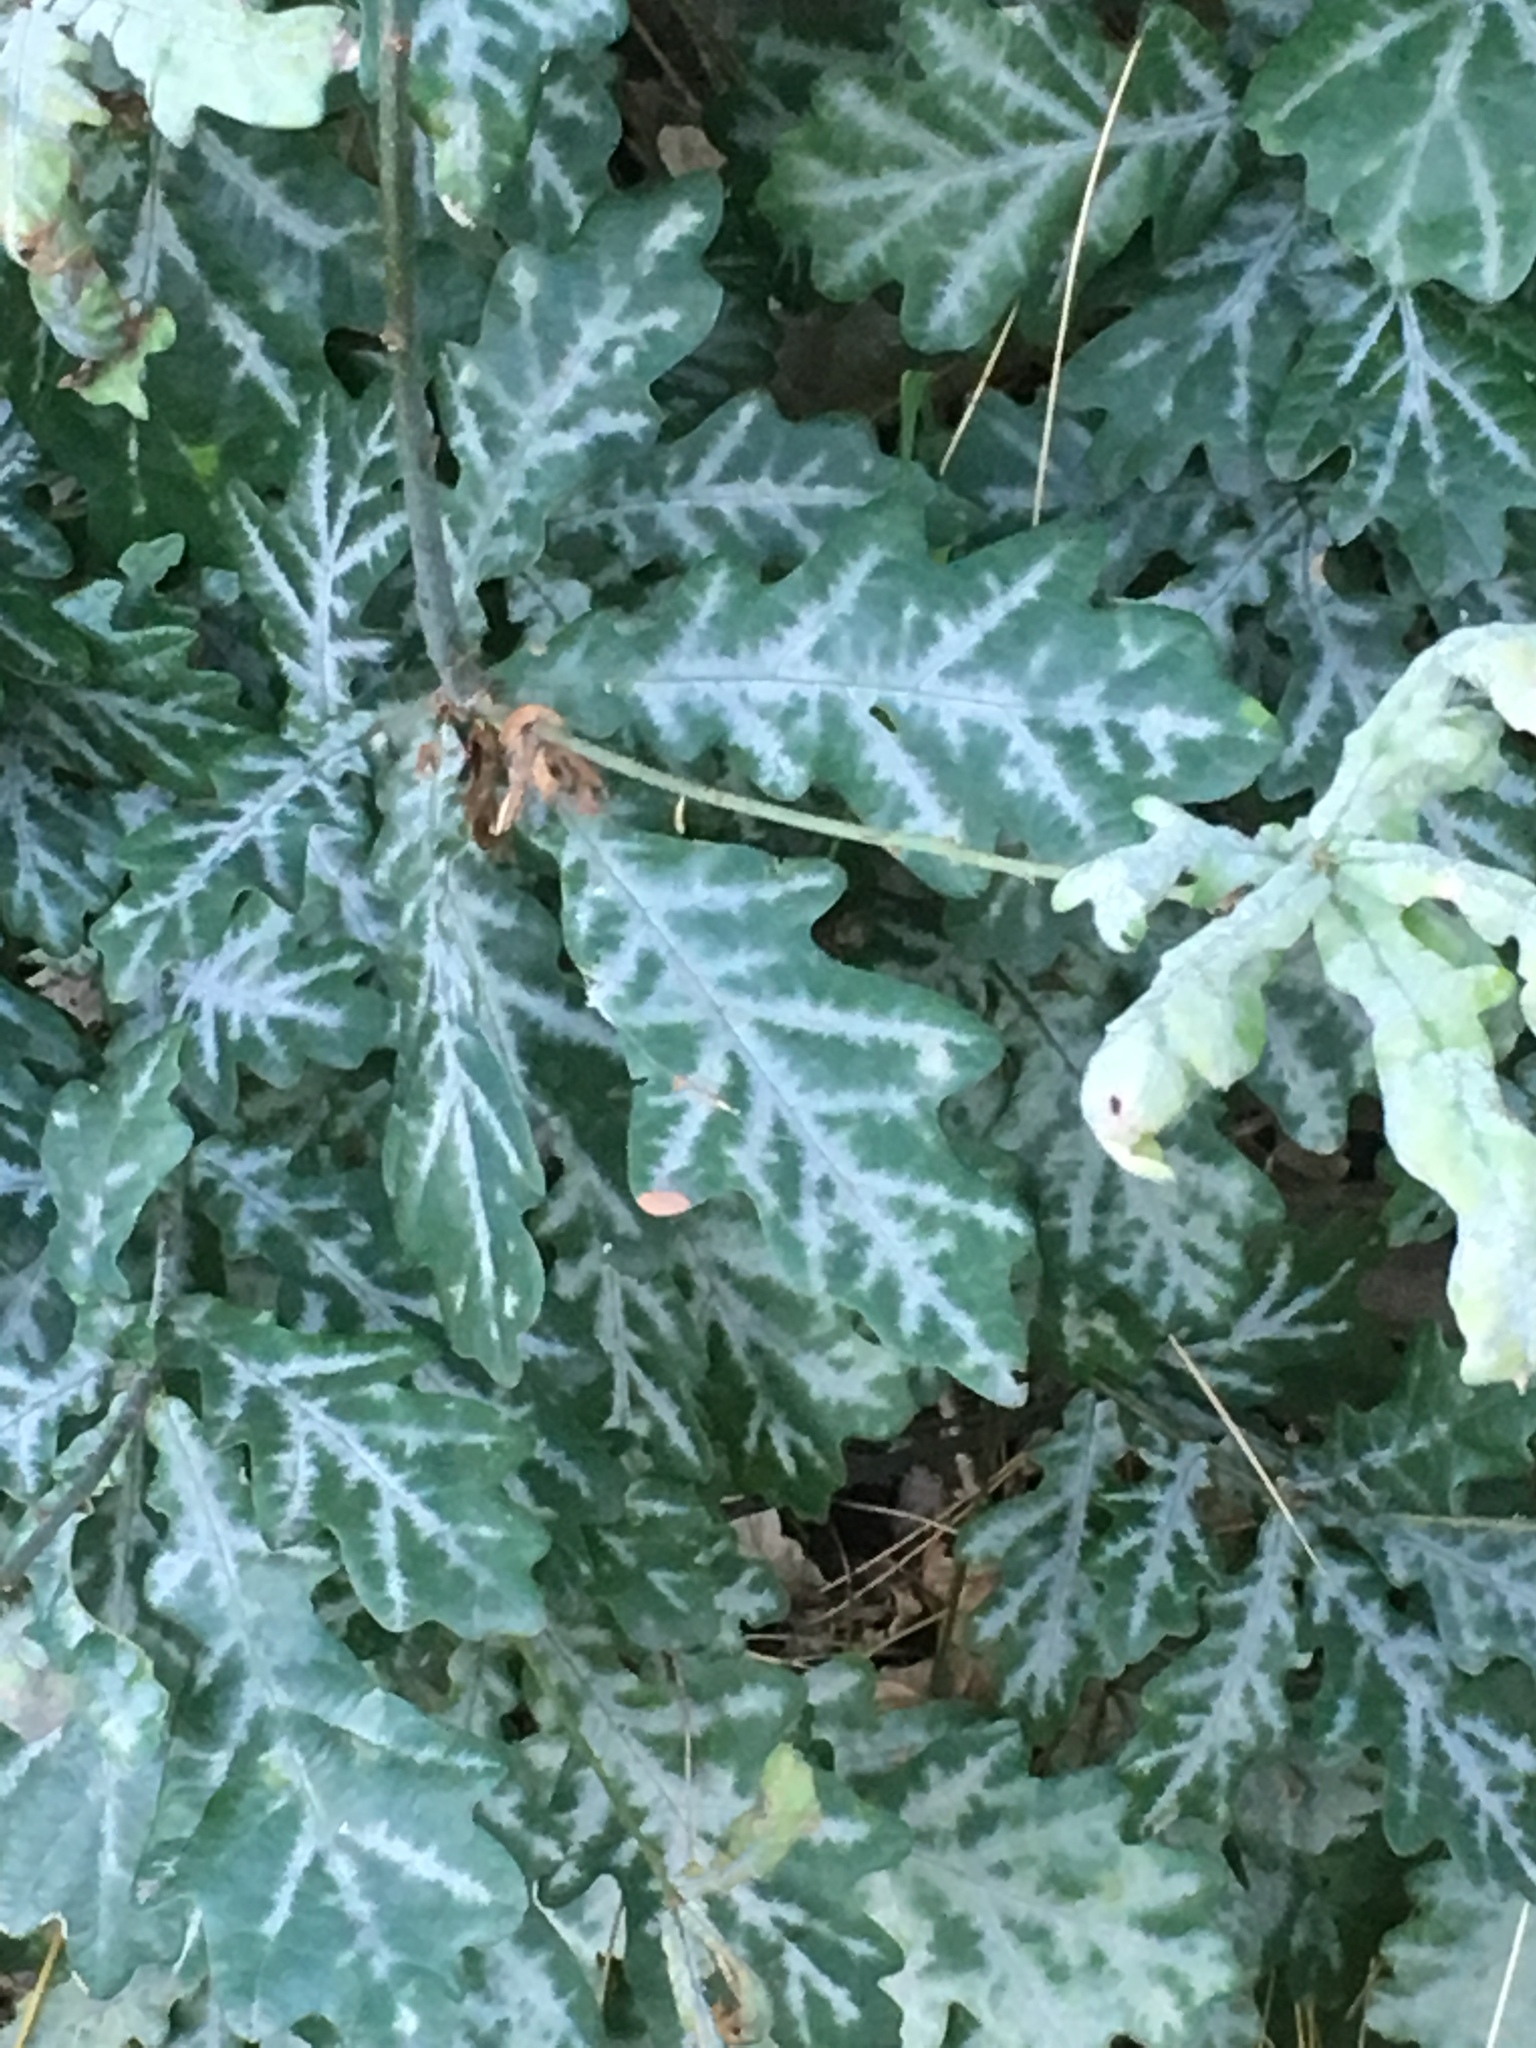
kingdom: Plantae
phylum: Tracheophyta
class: Magnoliopsida
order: Fagales
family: Fagaceae
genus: Quercus
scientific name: Quercus robur
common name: Pedunculate oak
